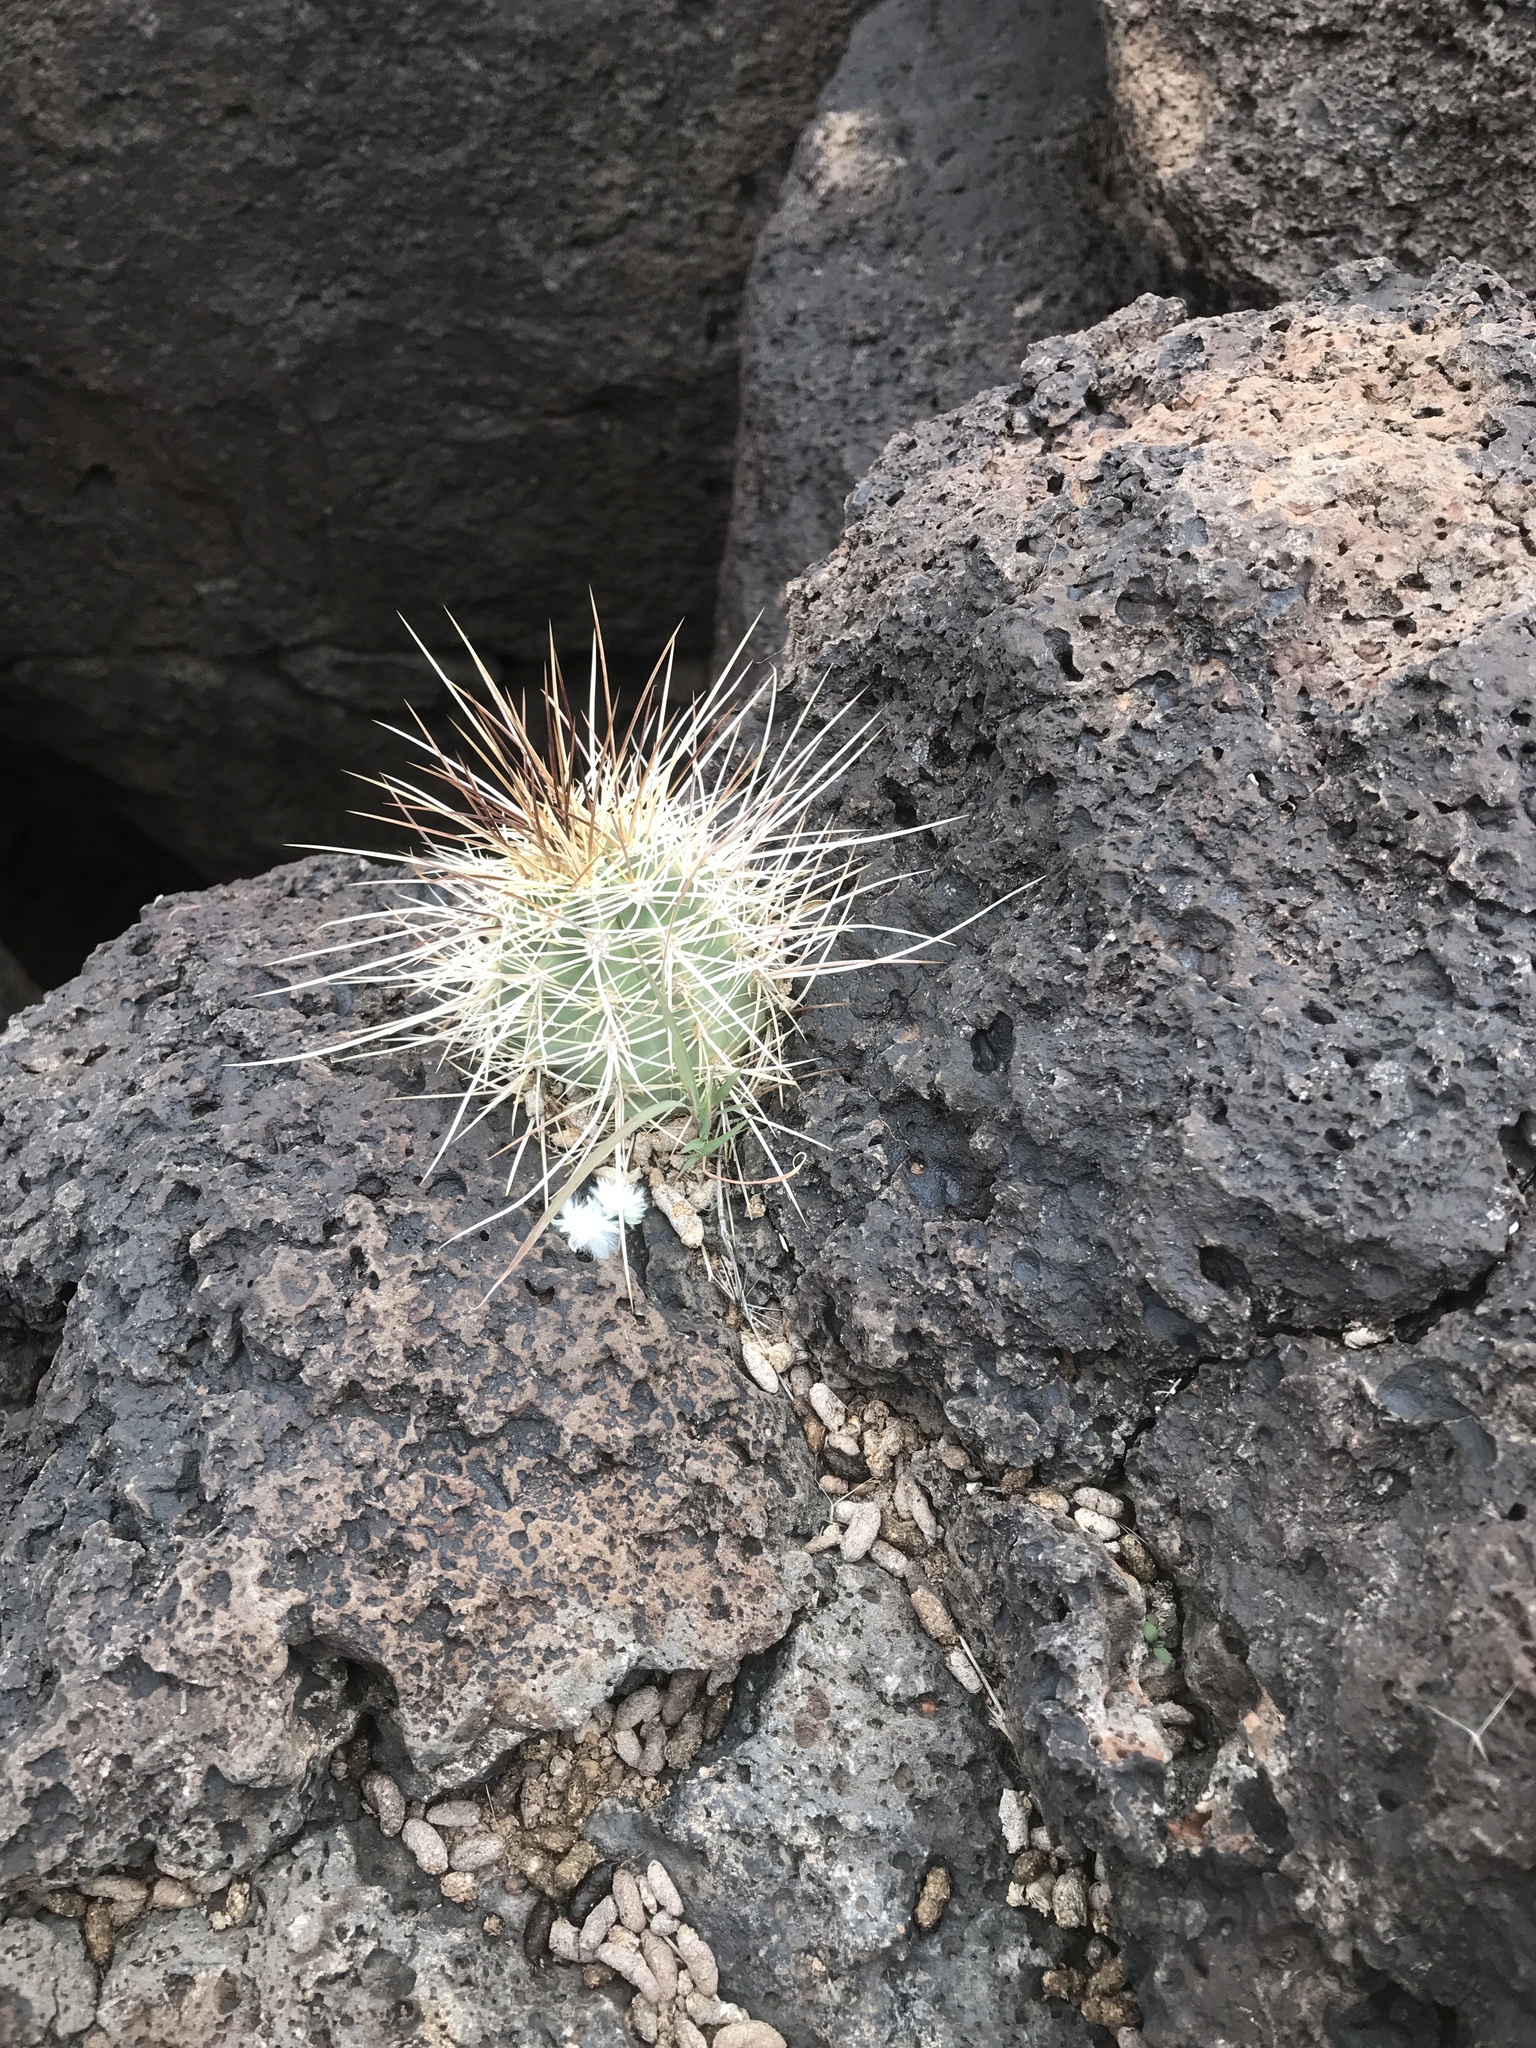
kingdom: Plantae
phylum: Tracheophyta
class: Magnoliopsida
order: Caryophyllales
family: Cactaceae
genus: Echinocereus
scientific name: Echinocereus coccineus
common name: Scarlet hedgehog cactus
